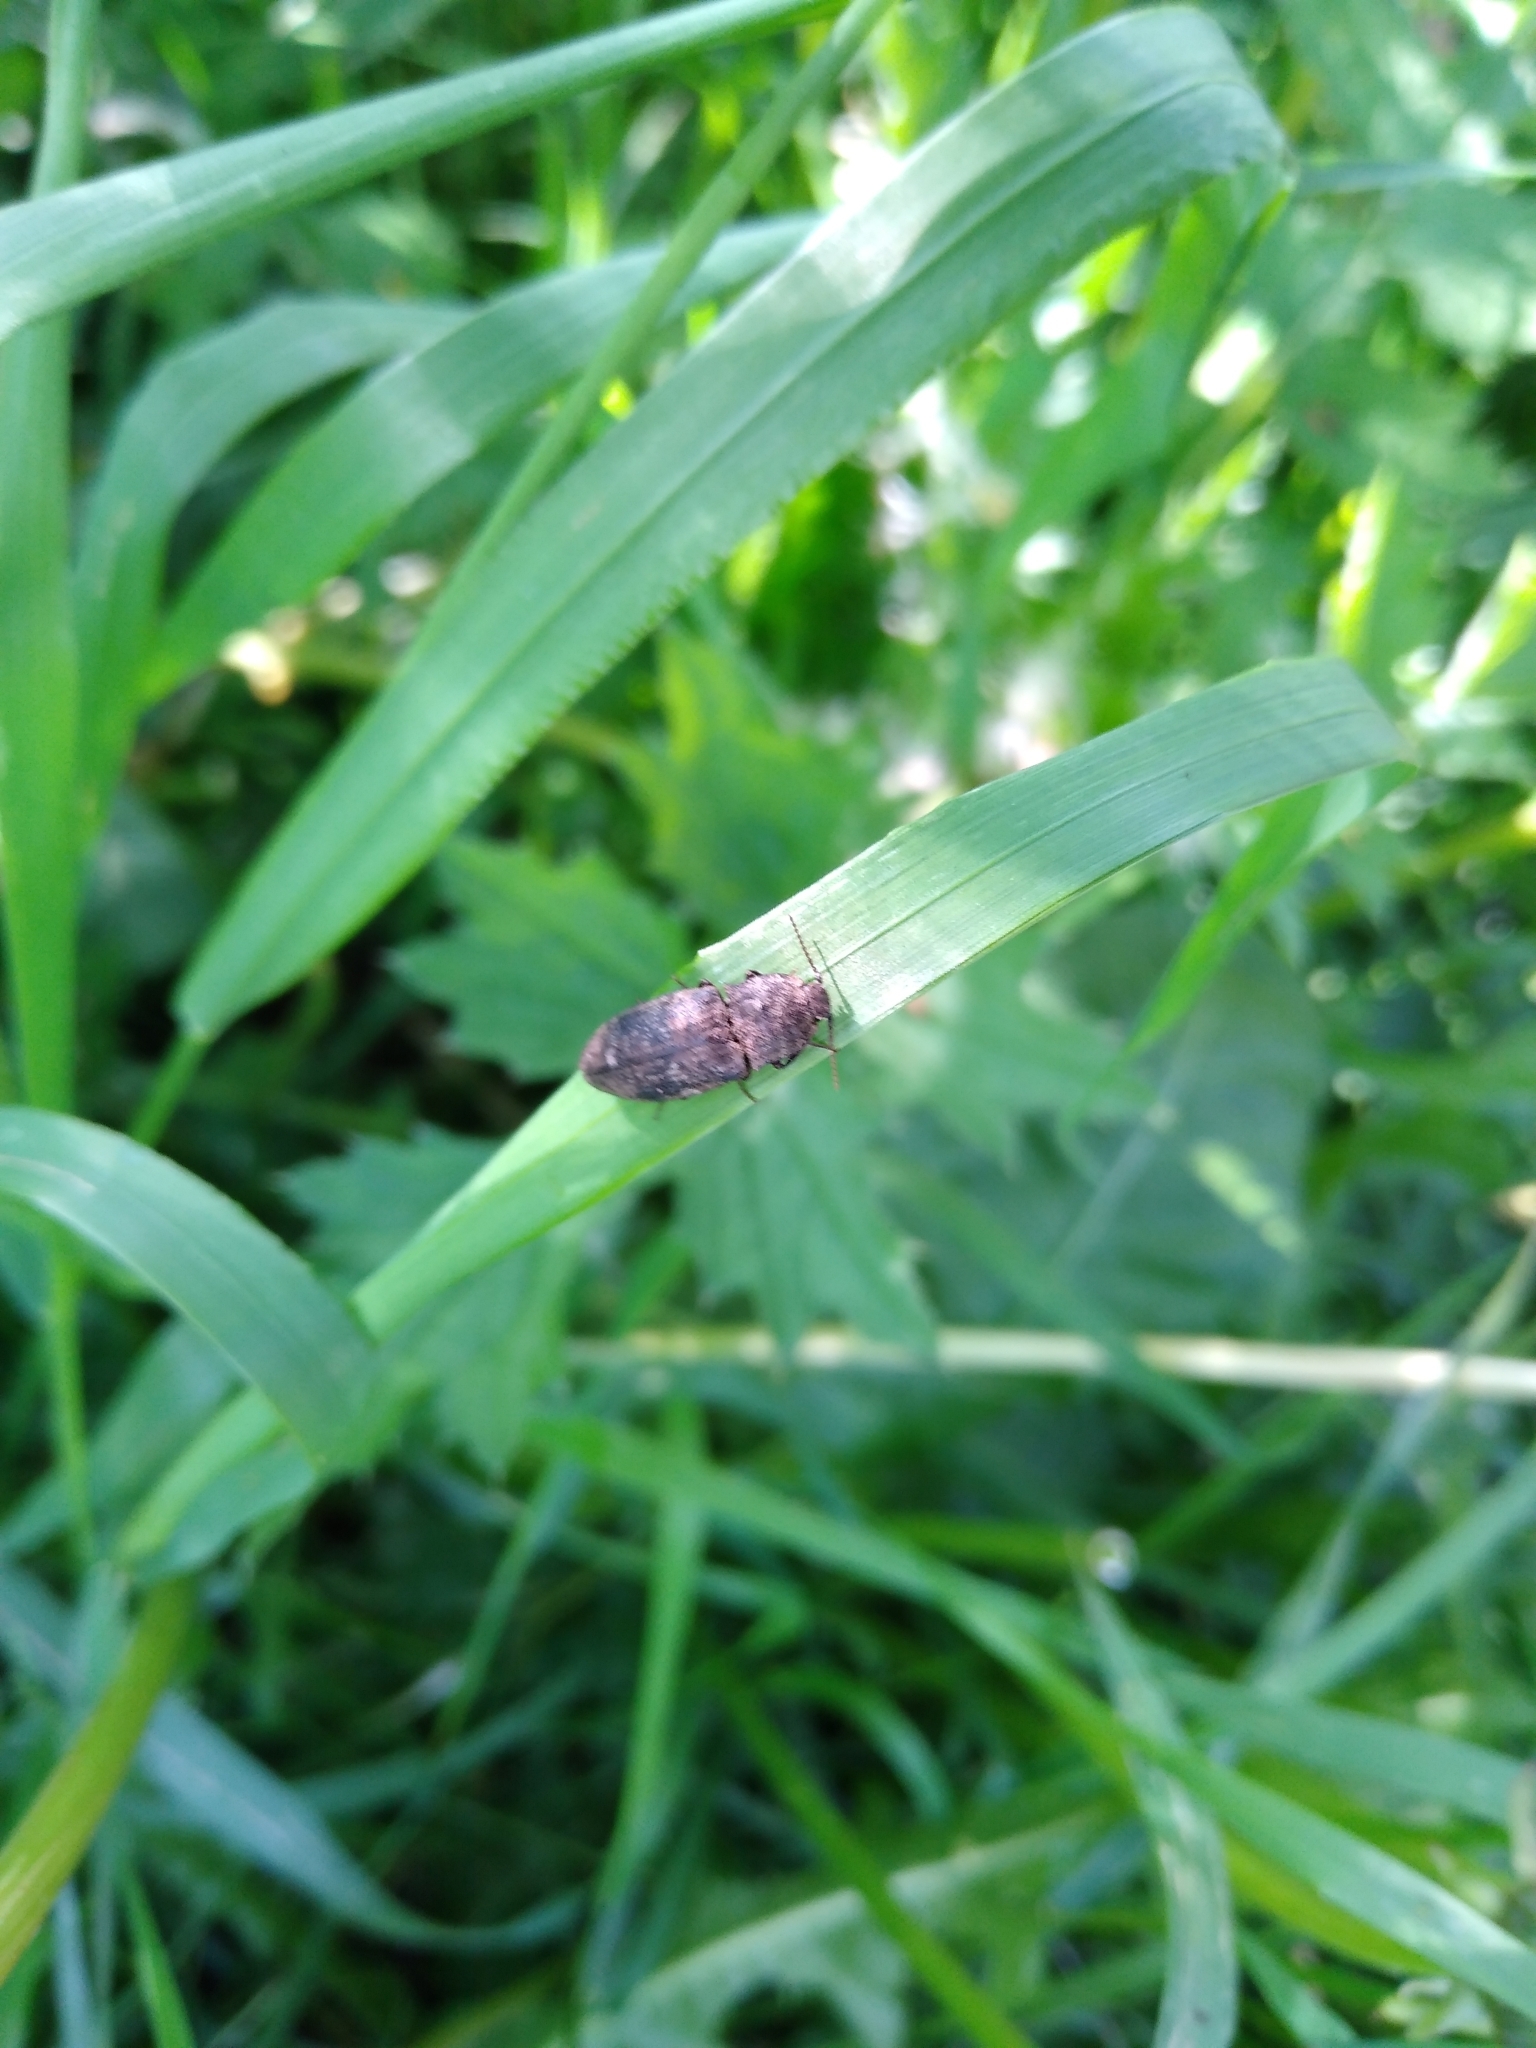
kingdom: Animalia
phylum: Arthropoda
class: Insecta
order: Coleoptera
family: Elateridae
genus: Agrypnus
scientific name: Agrypnus murinus
